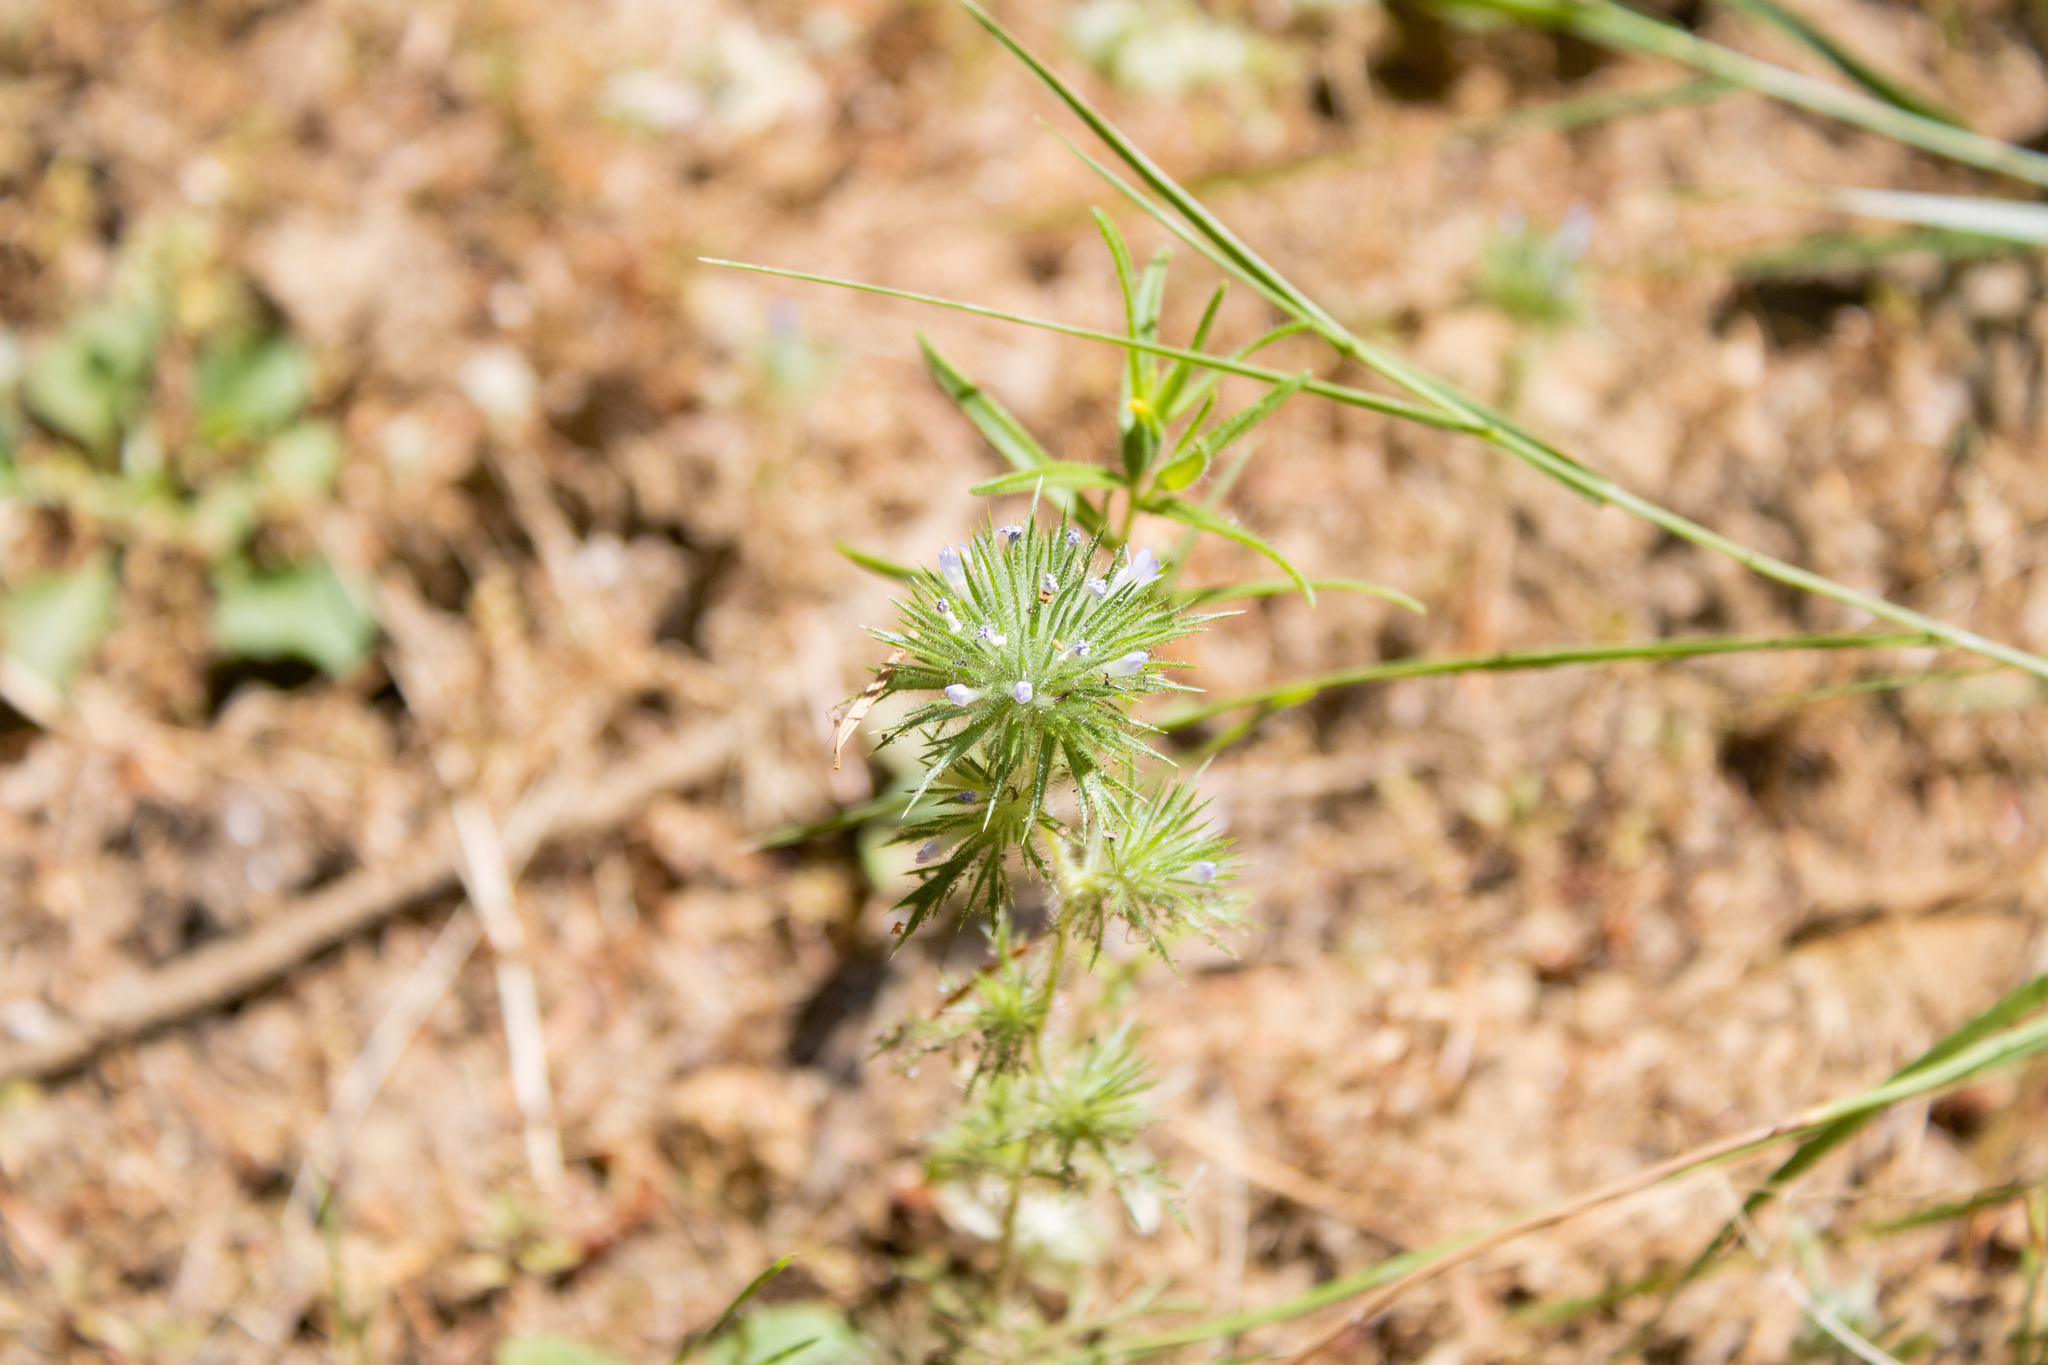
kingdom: Plantae
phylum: Tracheophyta
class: Magnoliopsida
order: Ericales
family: Polemoniaceae
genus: Navarretia
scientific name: Navarretia squarrosa
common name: Skunkweed
